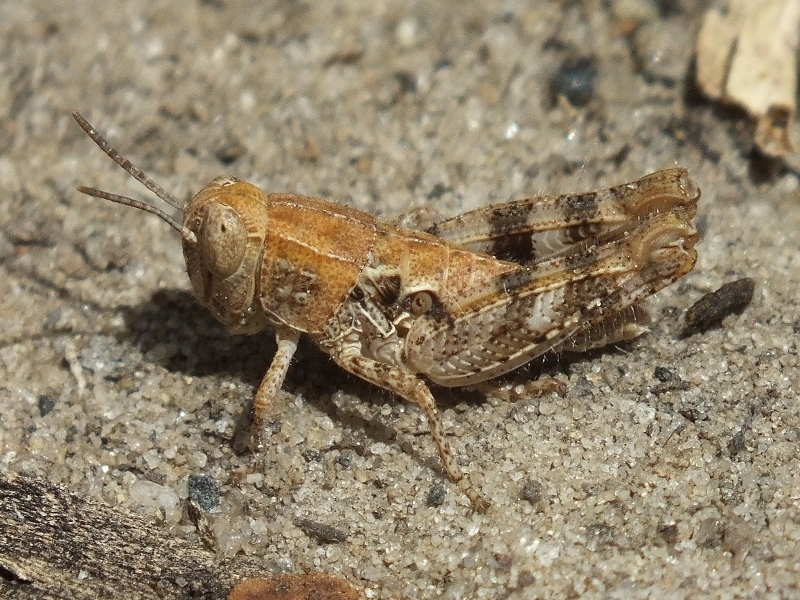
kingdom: Animalia
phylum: Arthropoda
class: Insecta
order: Orthoptera
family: Acrididae
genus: Calliptamus
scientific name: Calliptamus barbarus
